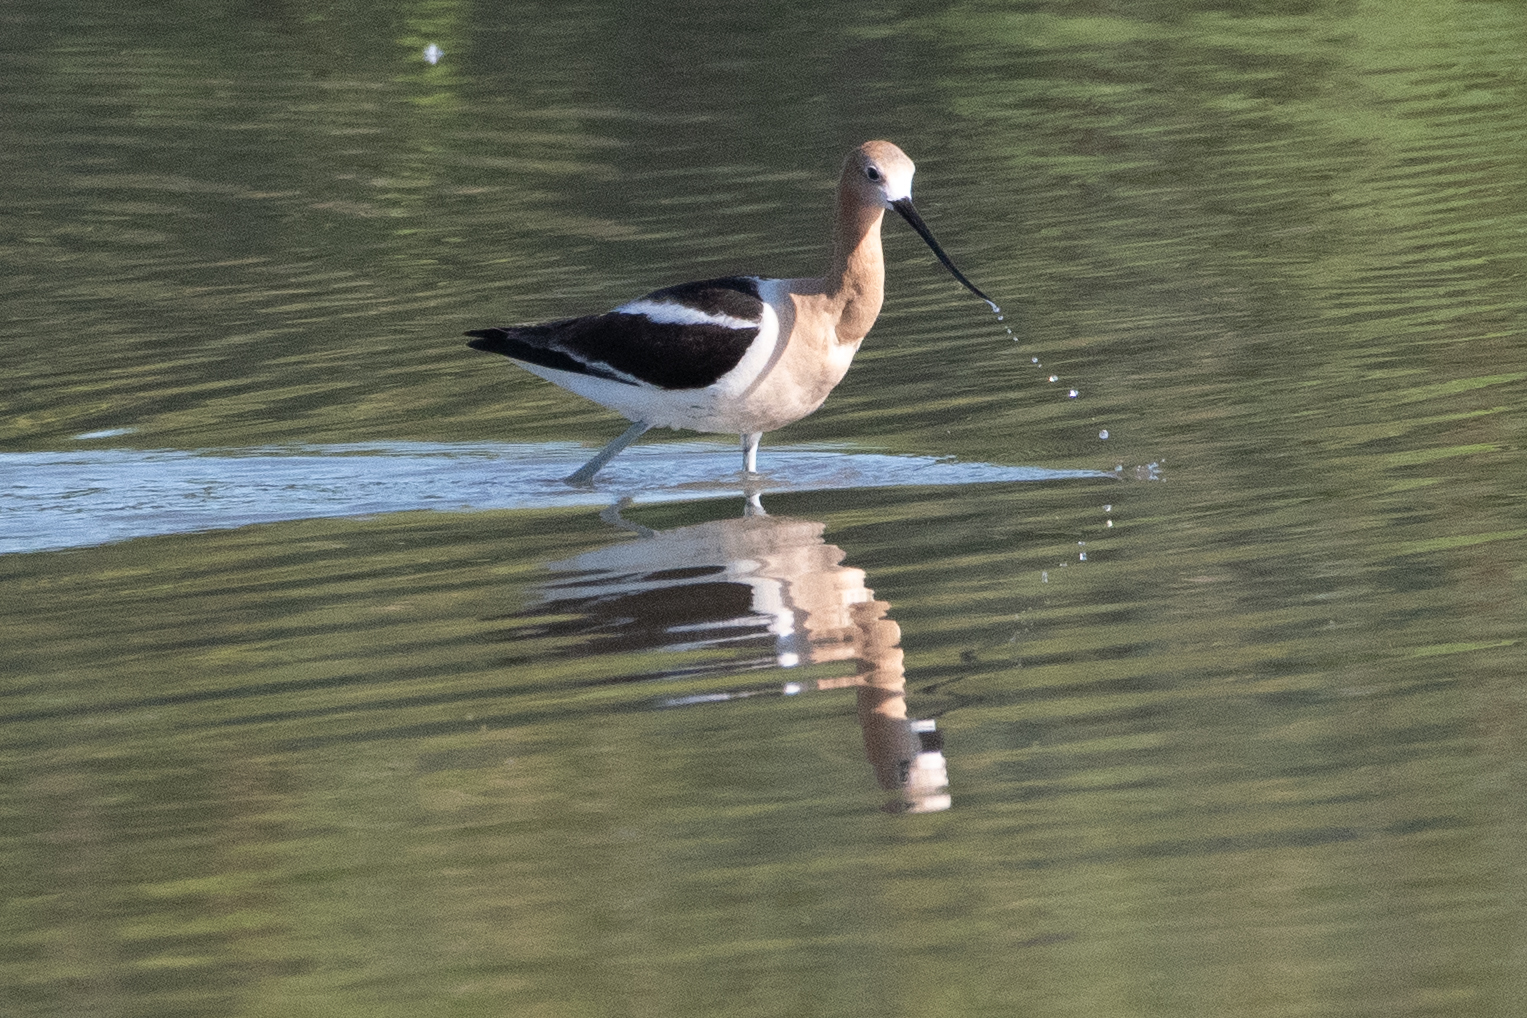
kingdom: Animalia
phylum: Chordata
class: Aves
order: Charadriiformes
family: Recurvirostridae
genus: Recurvirostra
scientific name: Recurvirostra americana
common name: American avocet
